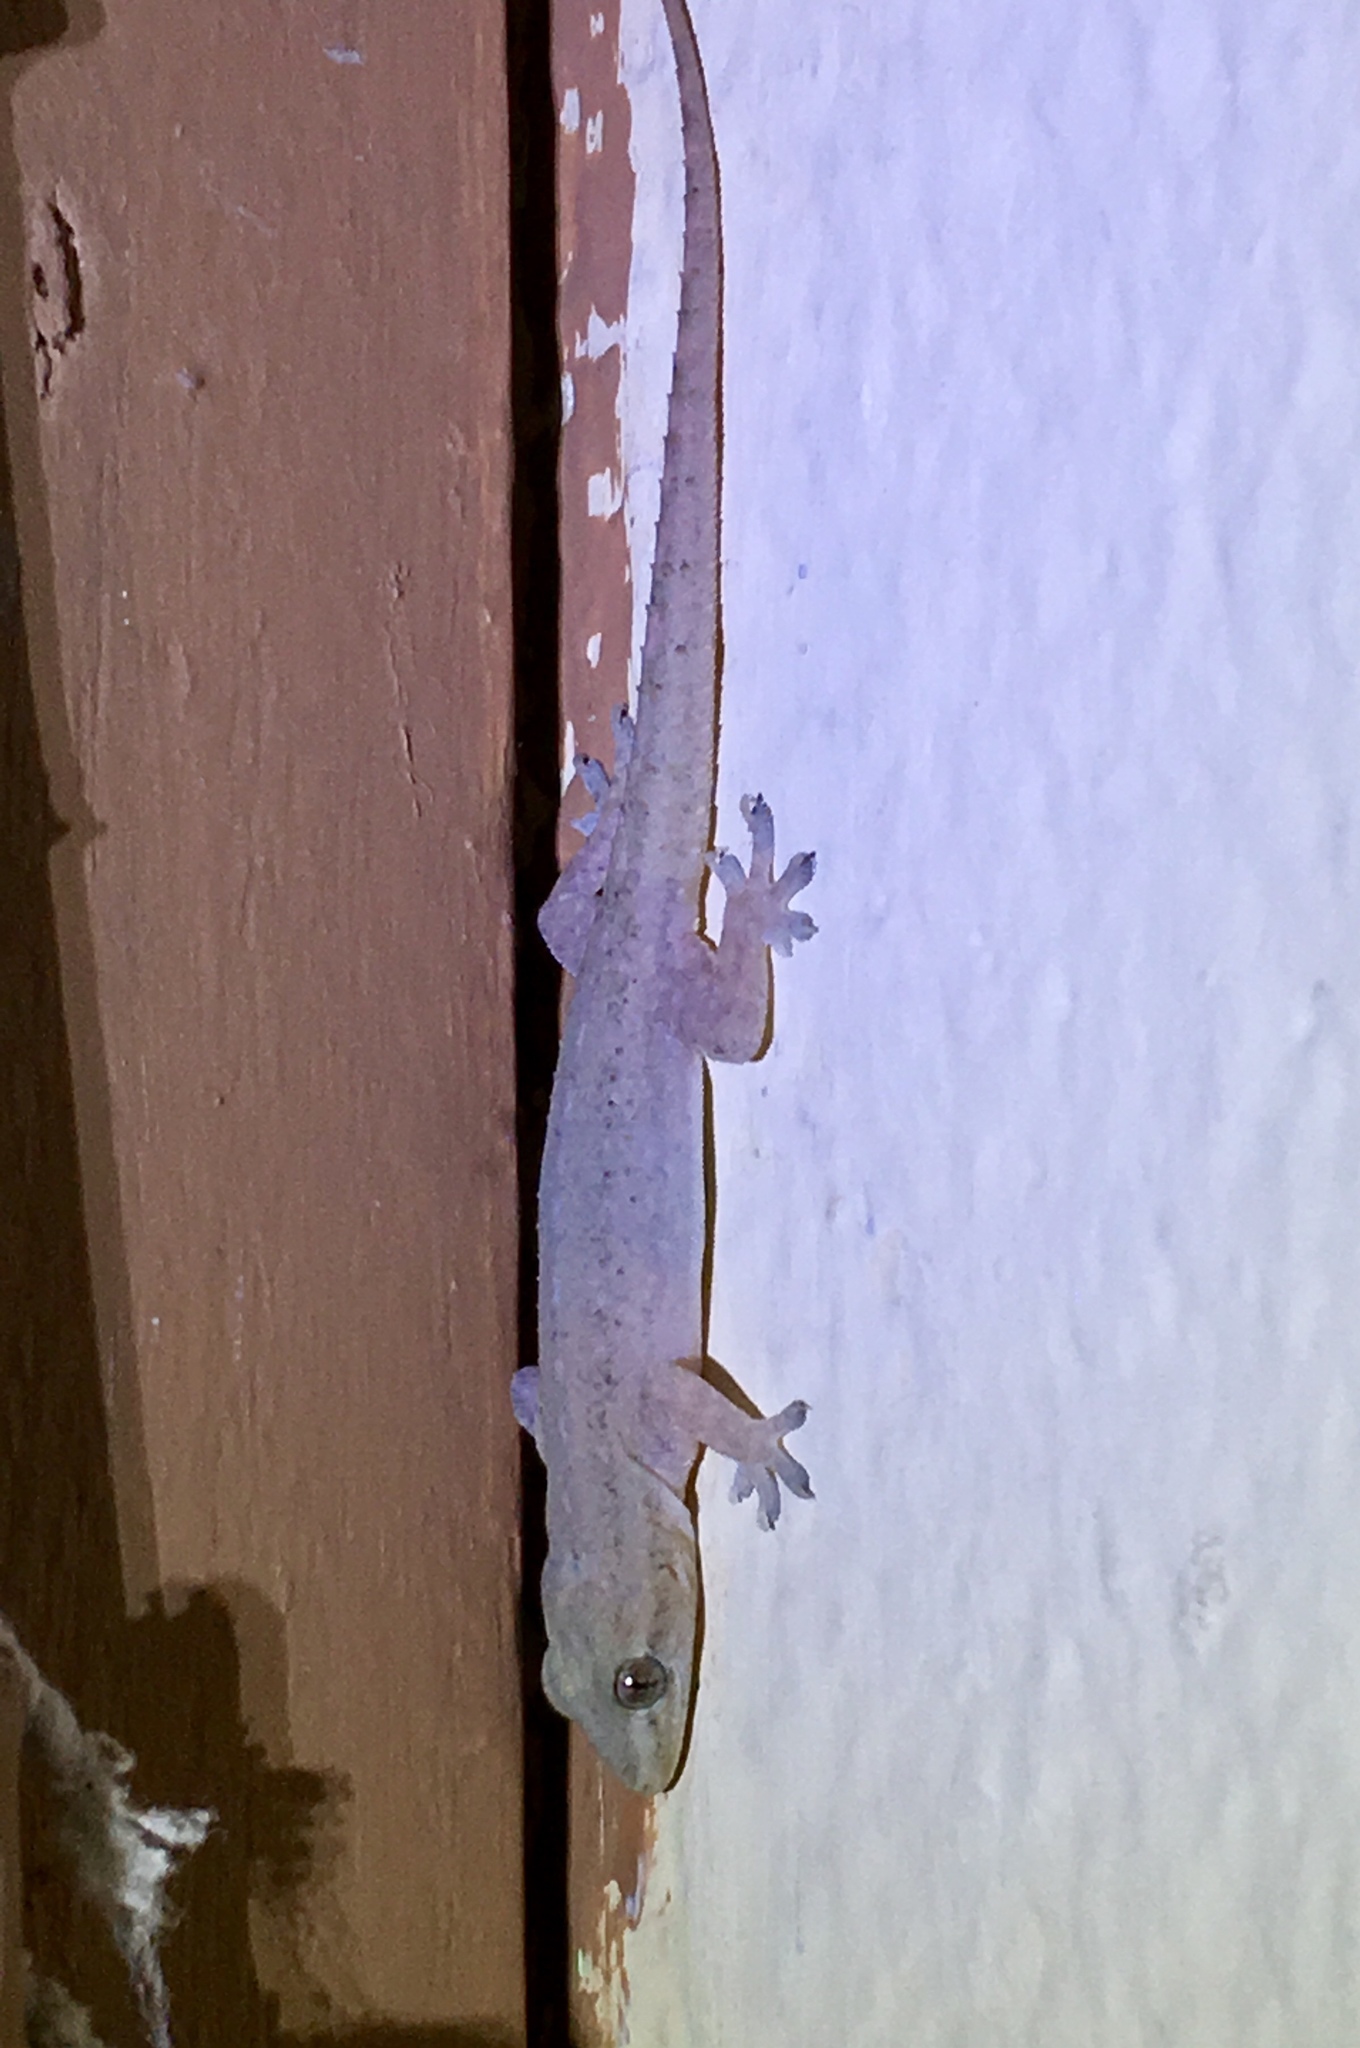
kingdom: Animalia
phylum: Chordata
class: Squamata
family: Gekkonidae
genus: Hemidactylus
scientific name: Hemidactylus frenatus
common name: Common house gecko
